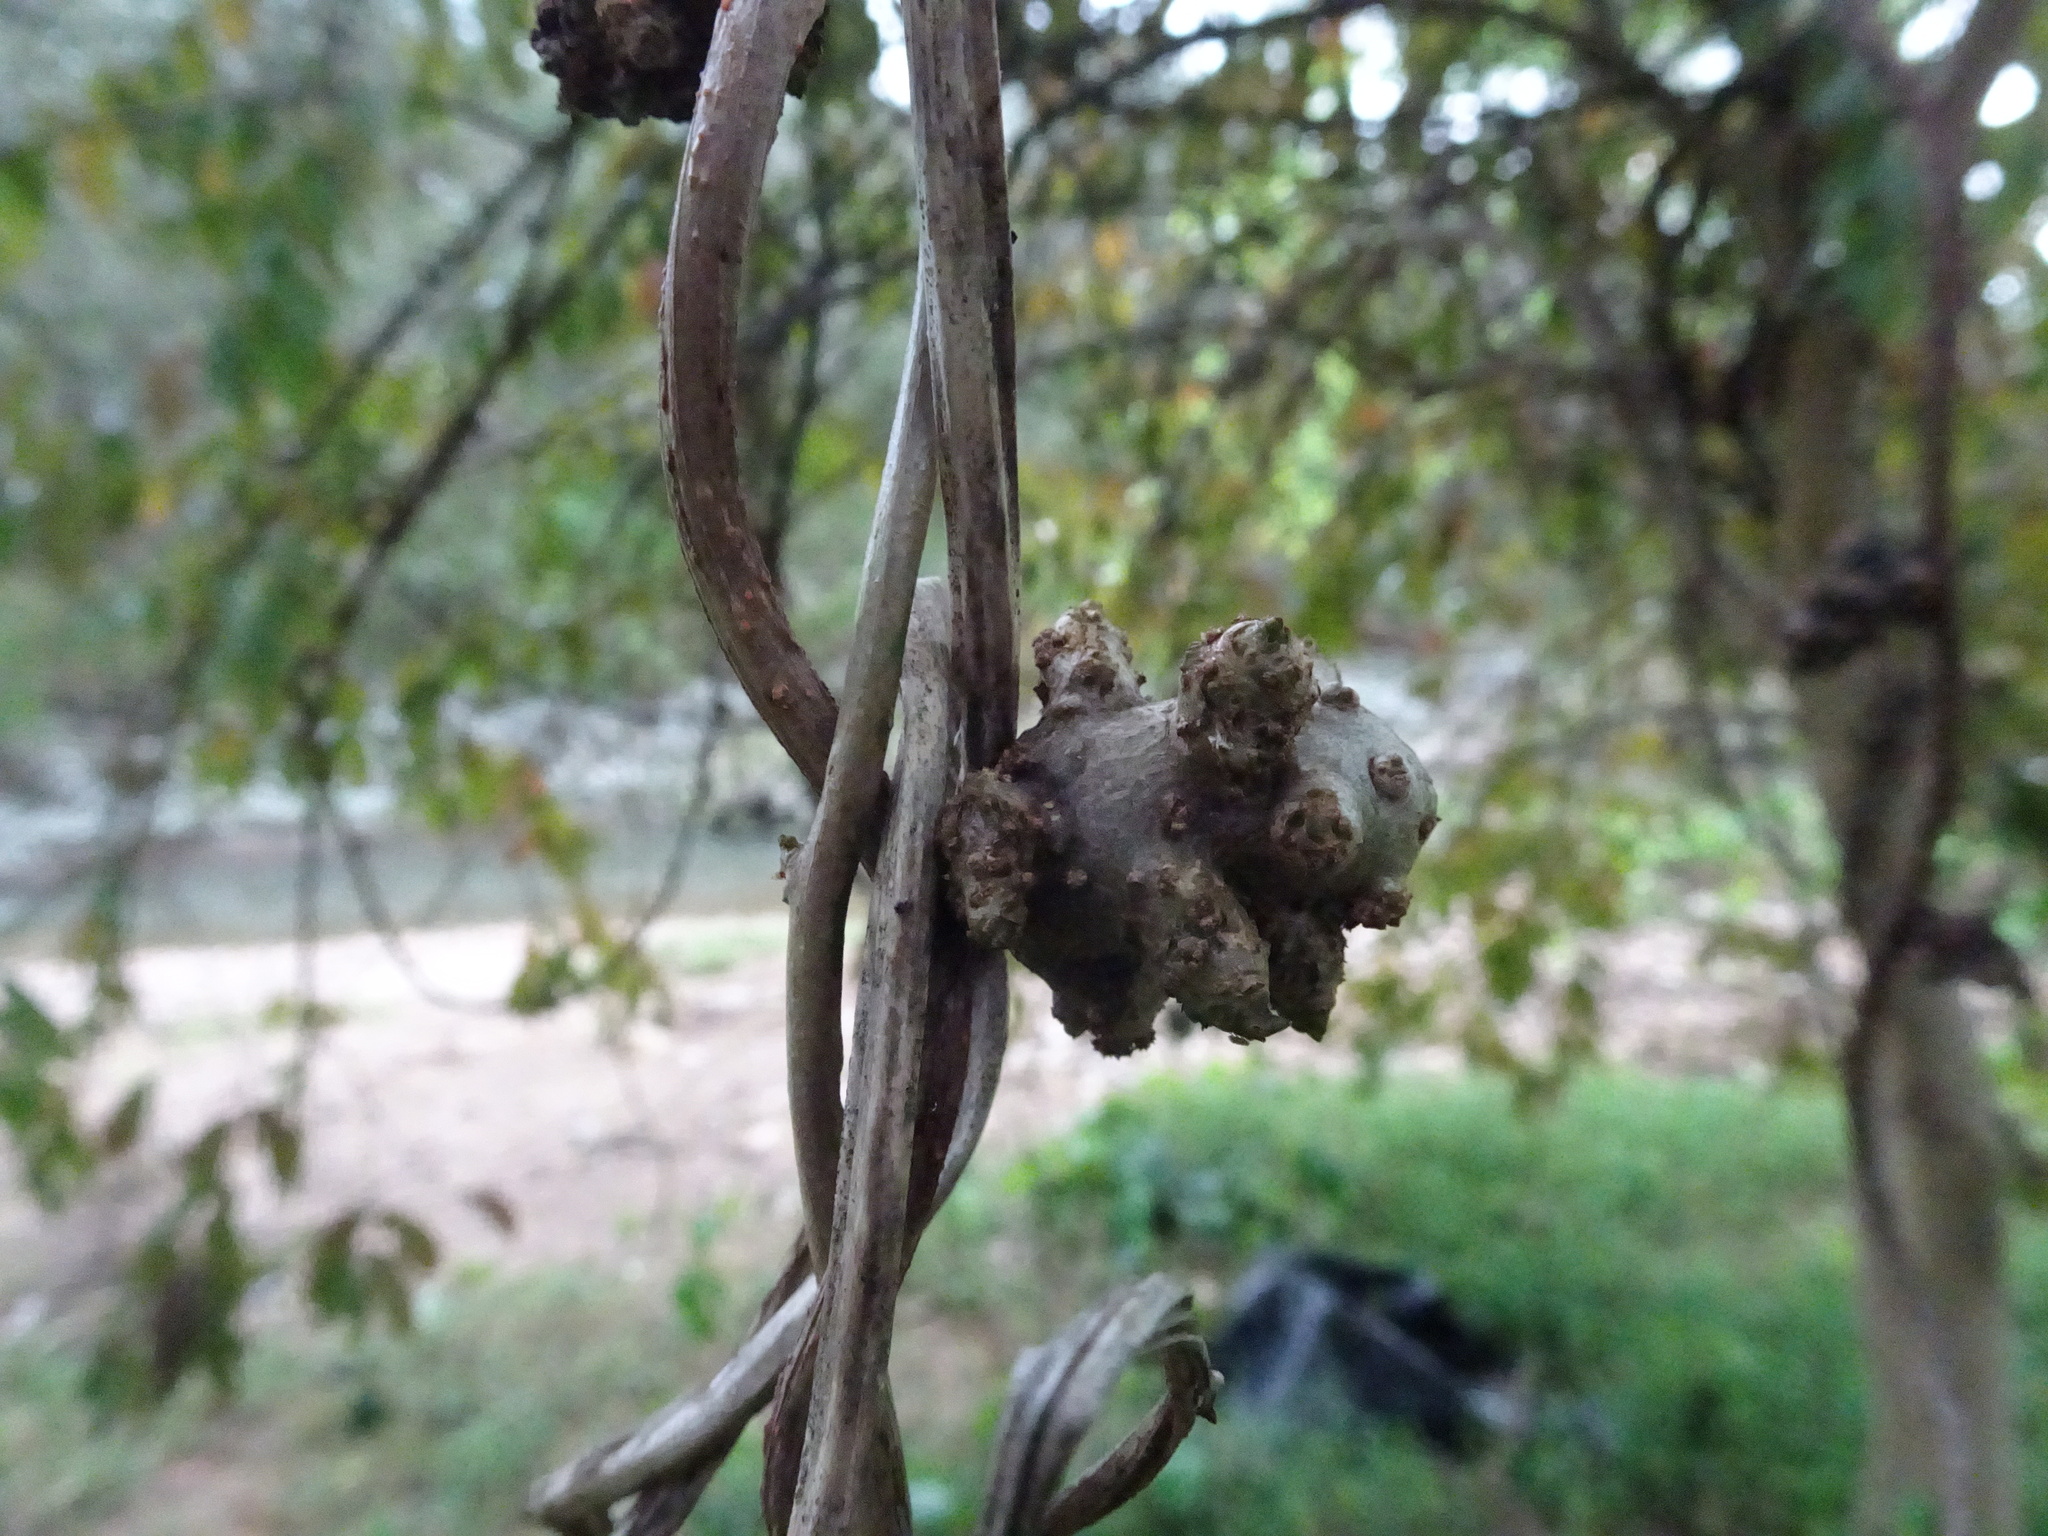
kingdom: Plantae
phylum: Tracheophyta
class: Magnoliopsida
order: Caryophyllales
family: Basellaceae
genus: Anredera
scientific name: Anredera cordifolia
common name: Heartleaf madeiravine
